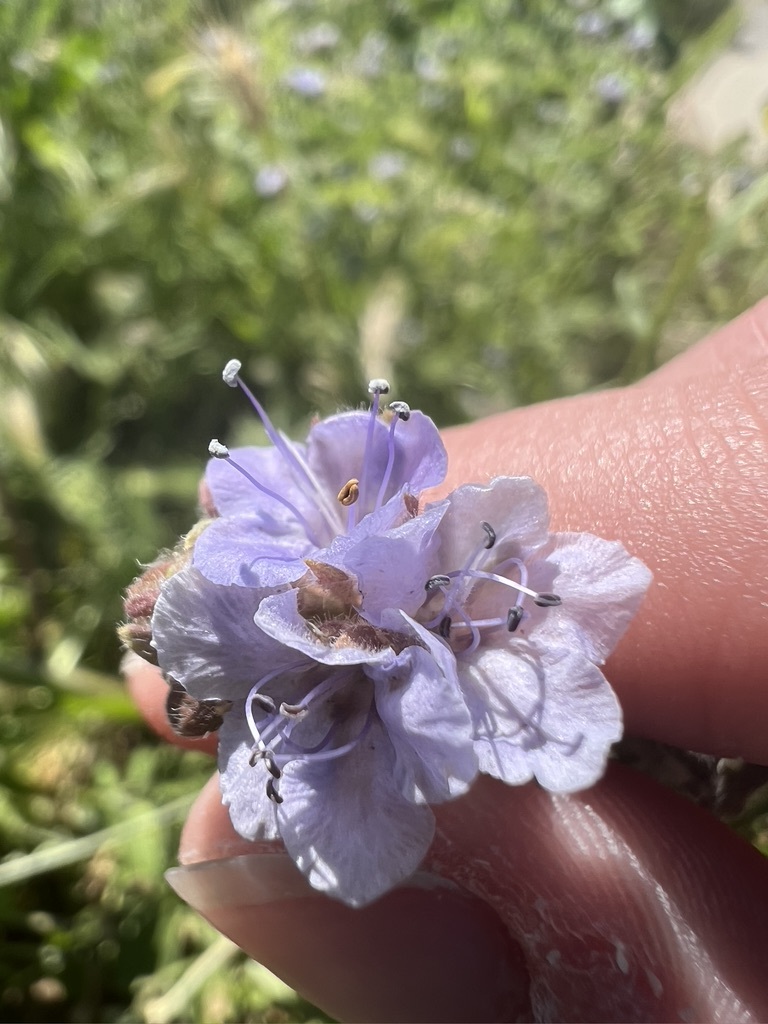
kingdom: Plantae
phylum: Tracheophyta
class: Magnoliopsida
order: Boraginales
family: Hydrophyllaceae
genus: Phacelia
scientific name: Phacelia distans
